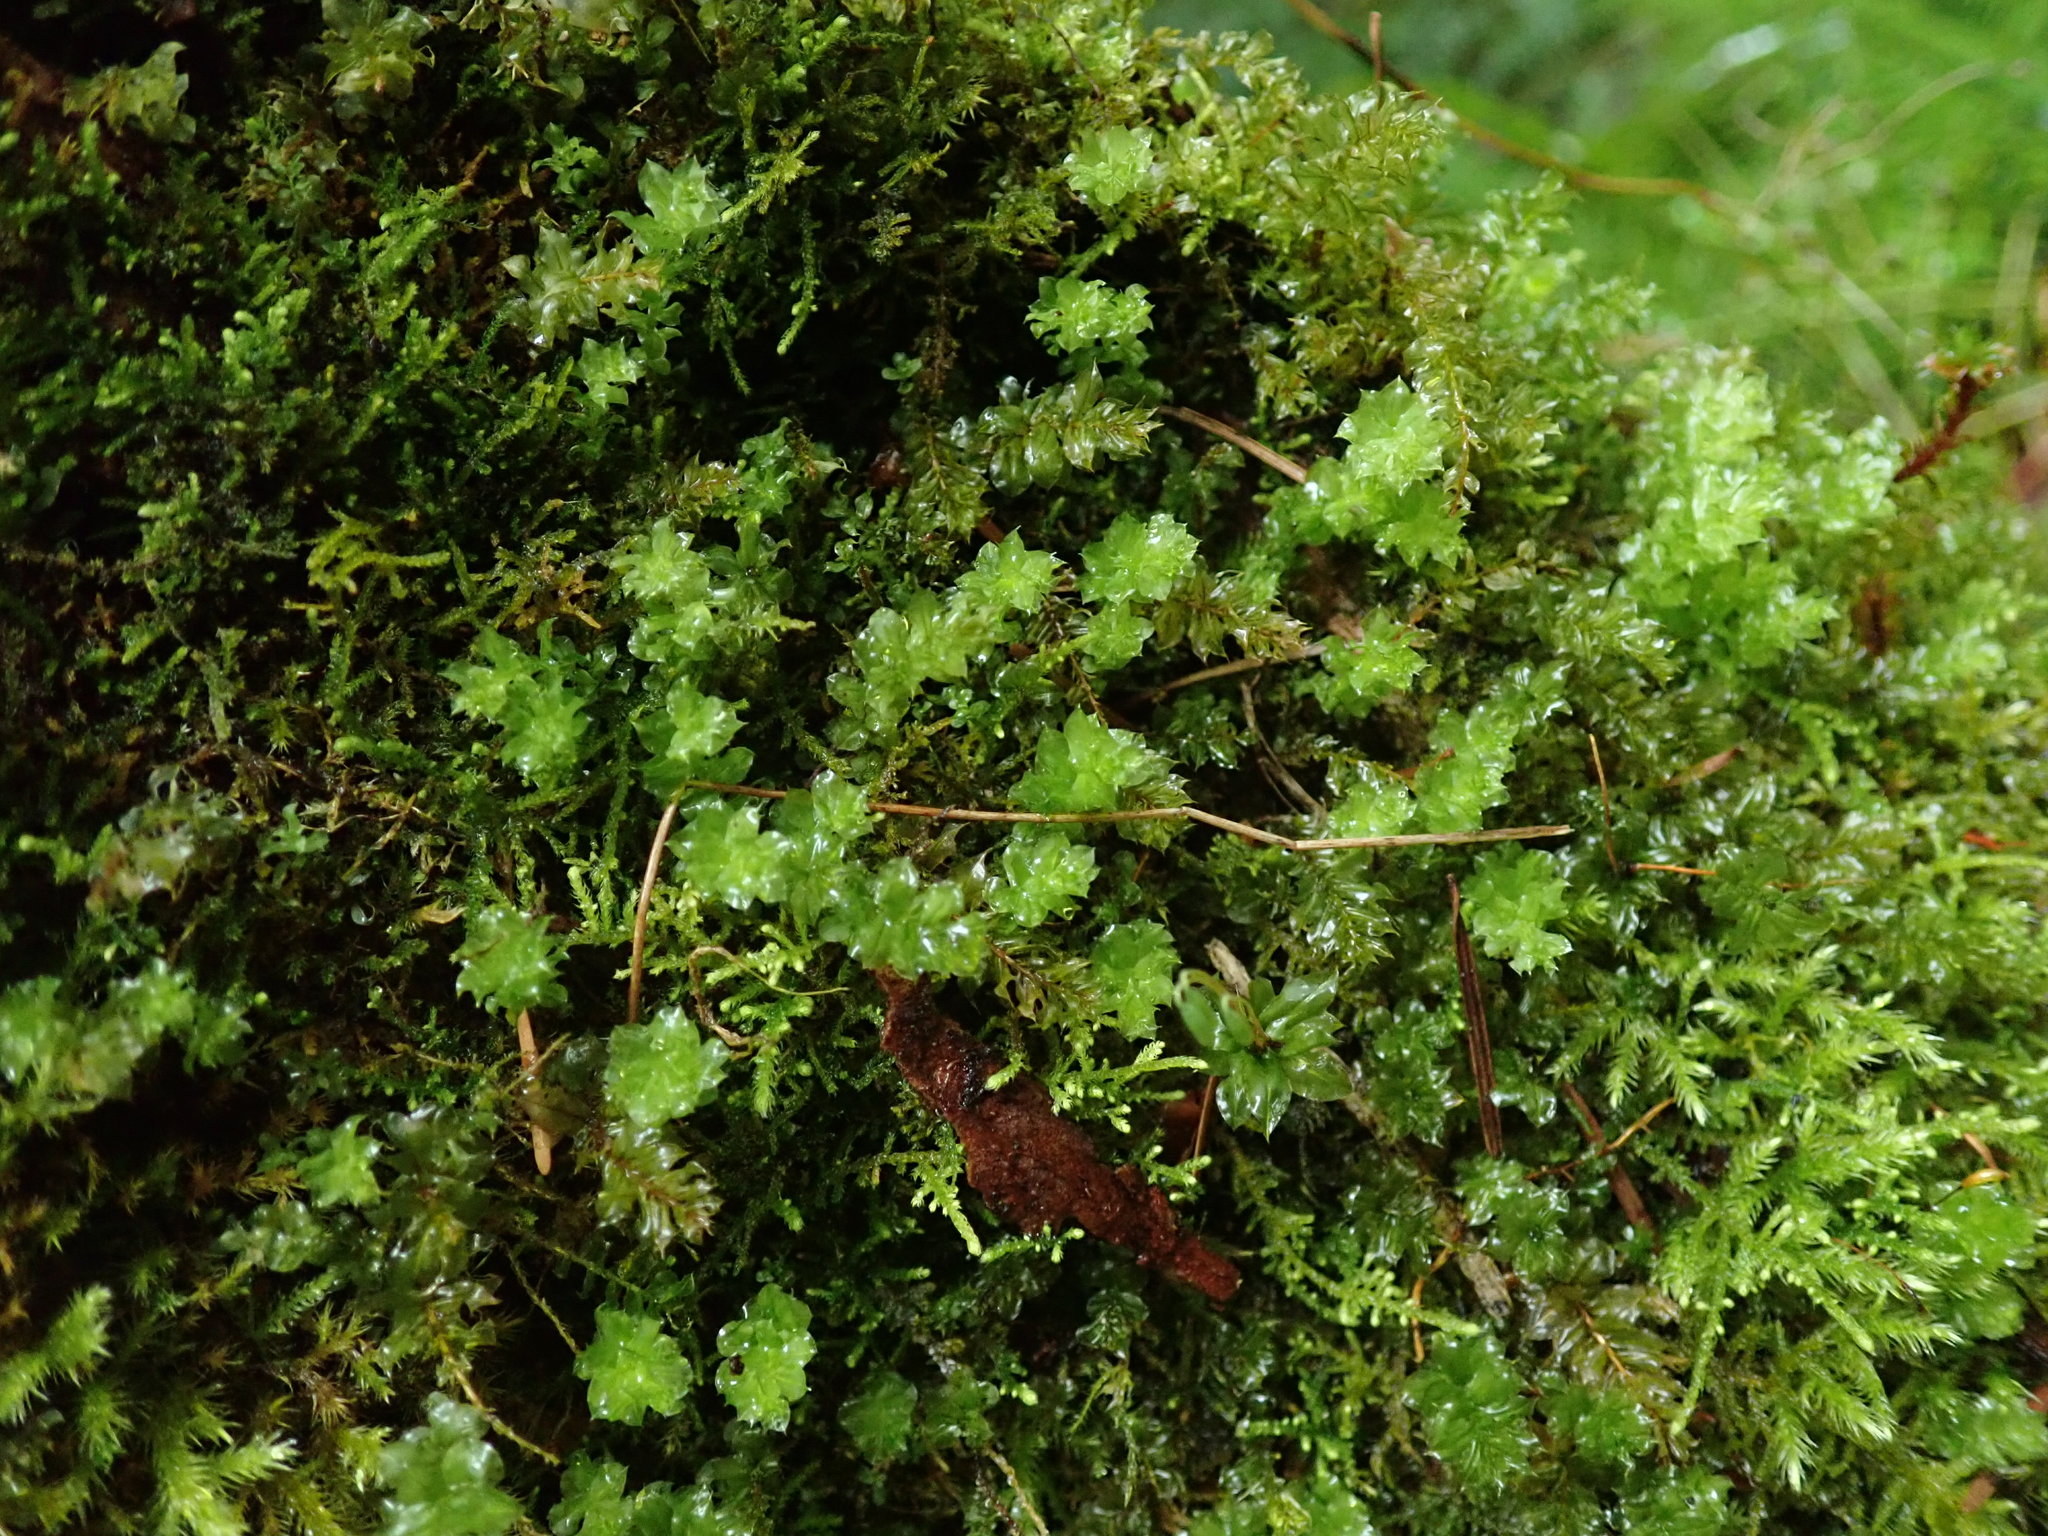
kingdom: Plantae
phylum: Bryophyta
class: Bryopsida
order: Bryales
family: Mniaceae
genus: Plagiomnium
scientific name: Plagiomnium venustum
